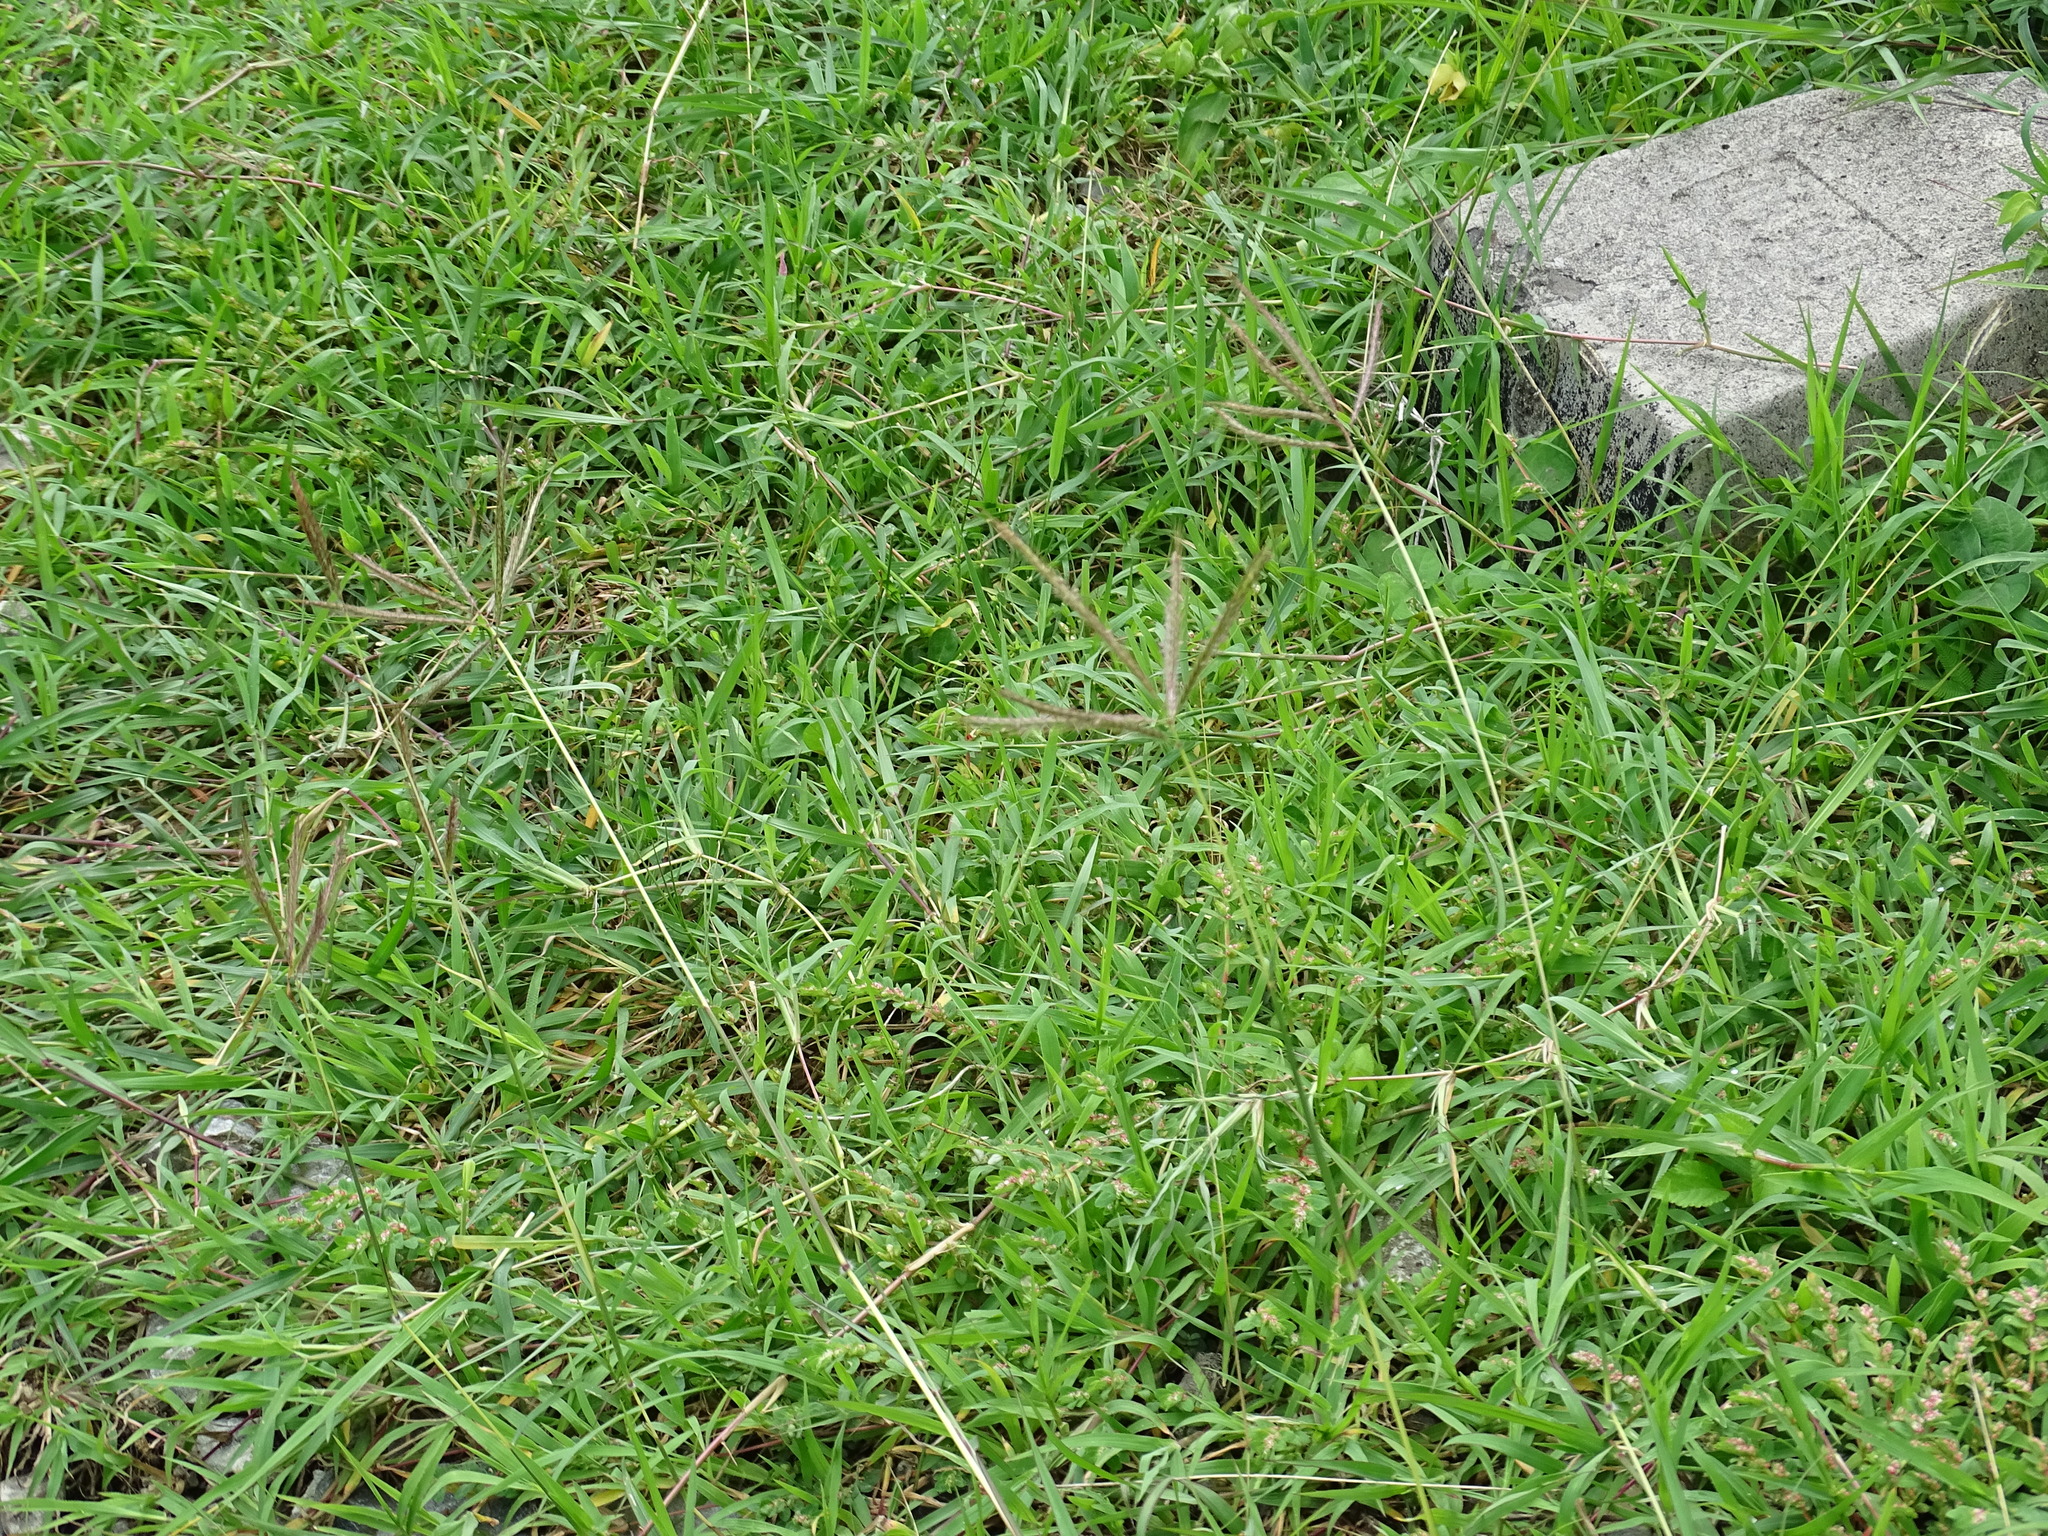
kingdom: Plantae
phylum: Tracheophyta
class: Liliopsida
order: Poales
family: Poaceae
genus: Dichanthium
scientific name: Dichanthium annulatum
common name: Kleberg's bluestem
